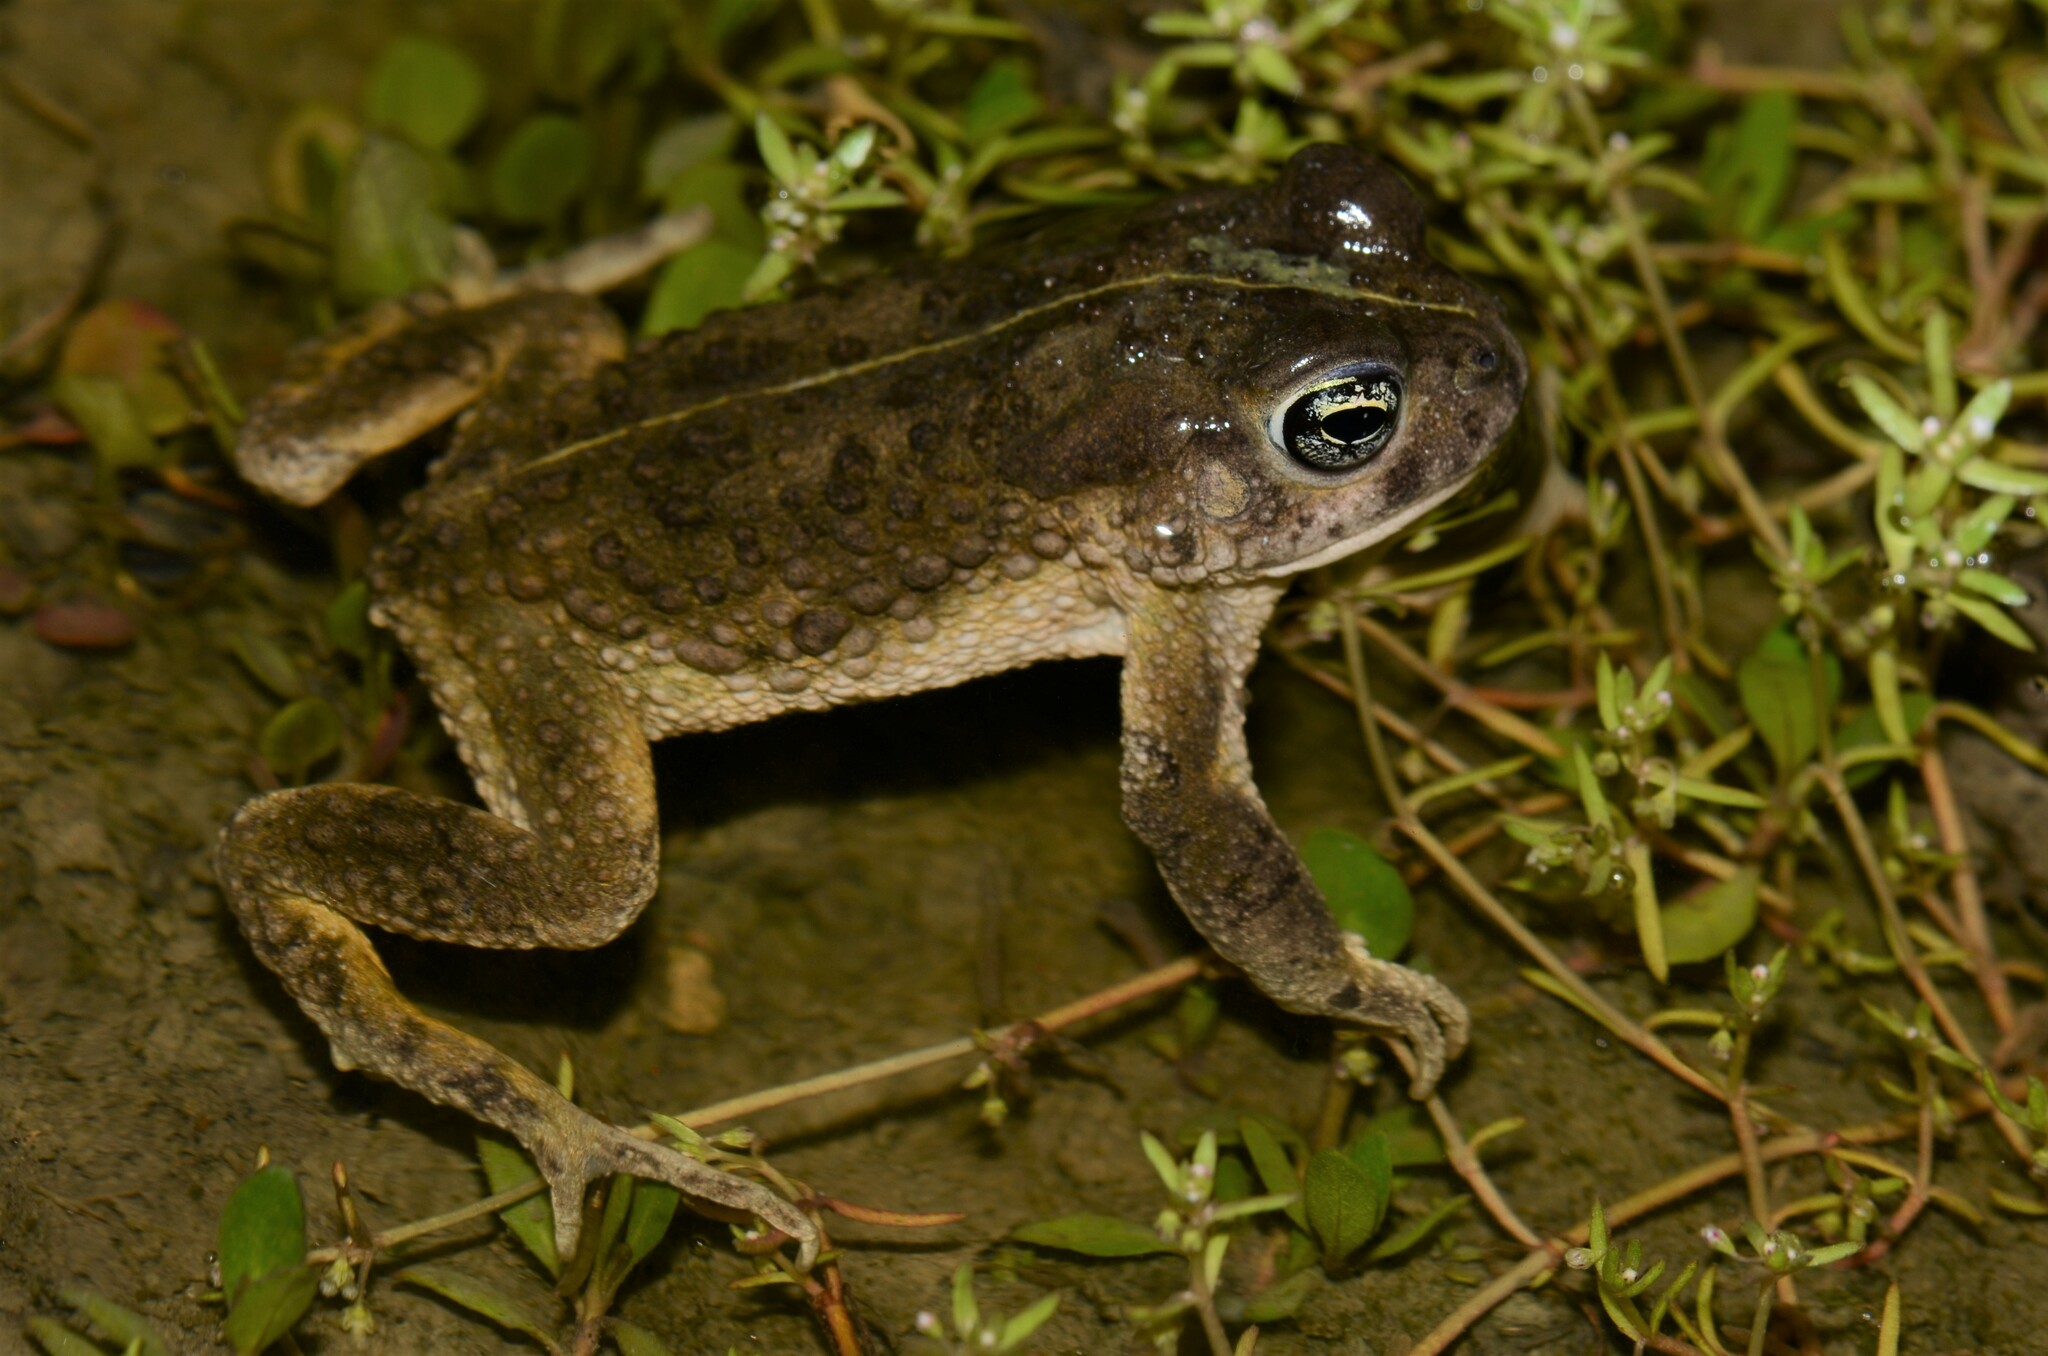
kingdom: Animalia
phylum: Chordata
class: Amphibia
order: Anura
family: Bufonidae
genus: Vandijkophrynus
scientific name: Vandijkophrynus angusticeps
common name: Sand toad
